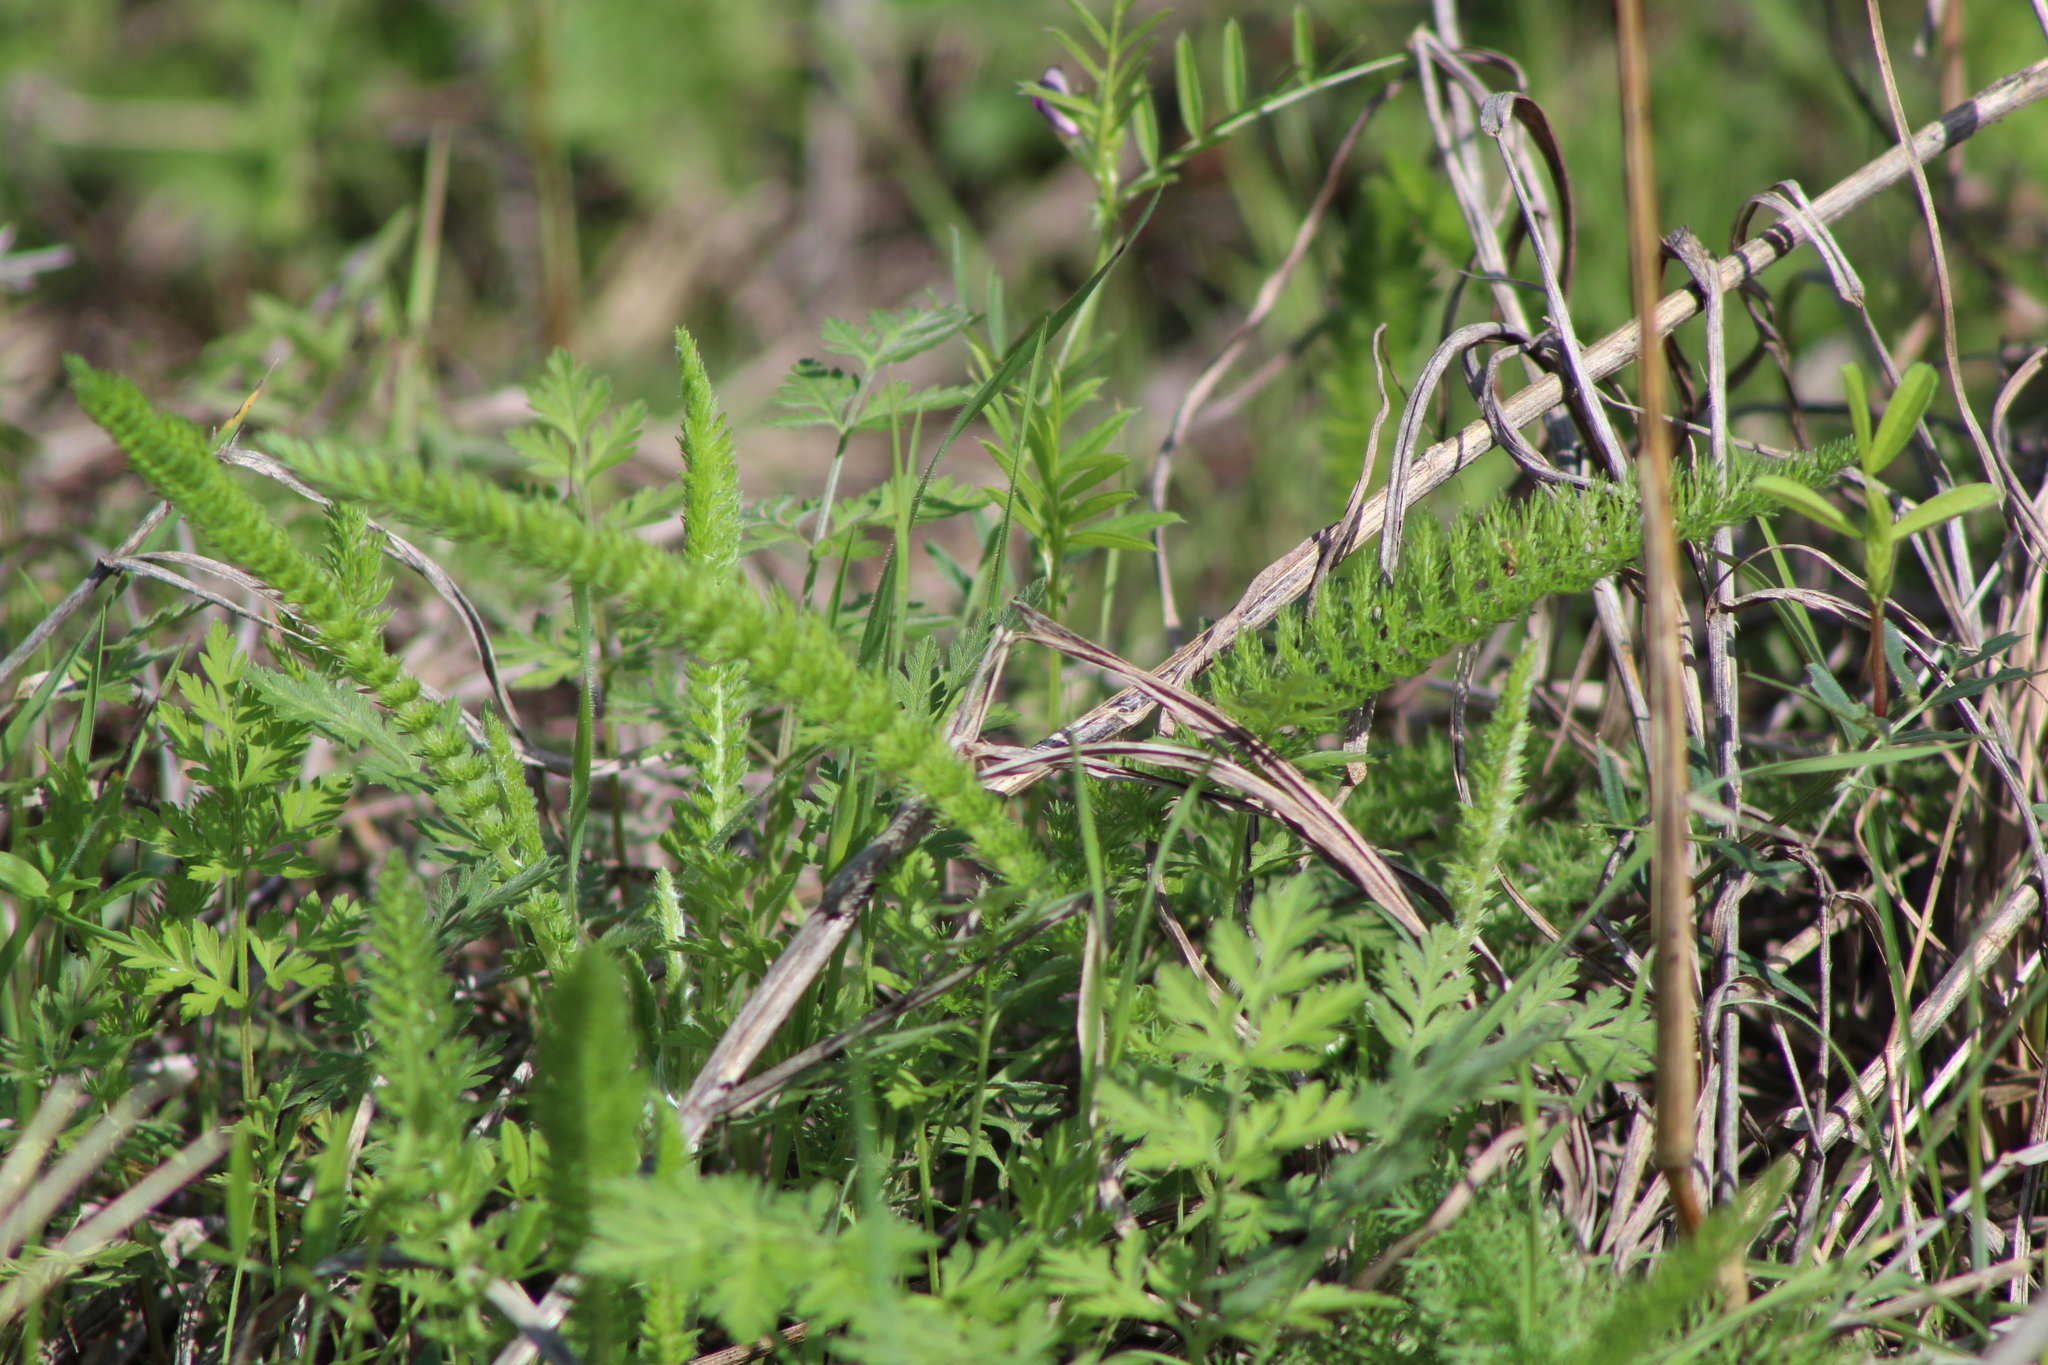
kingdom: Plantae
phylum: Tracheophyta
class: Magnoliopsida
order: Asterales
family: Asteraceae
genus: Achillea
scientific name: Achillea millefolium
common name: Yarrow
